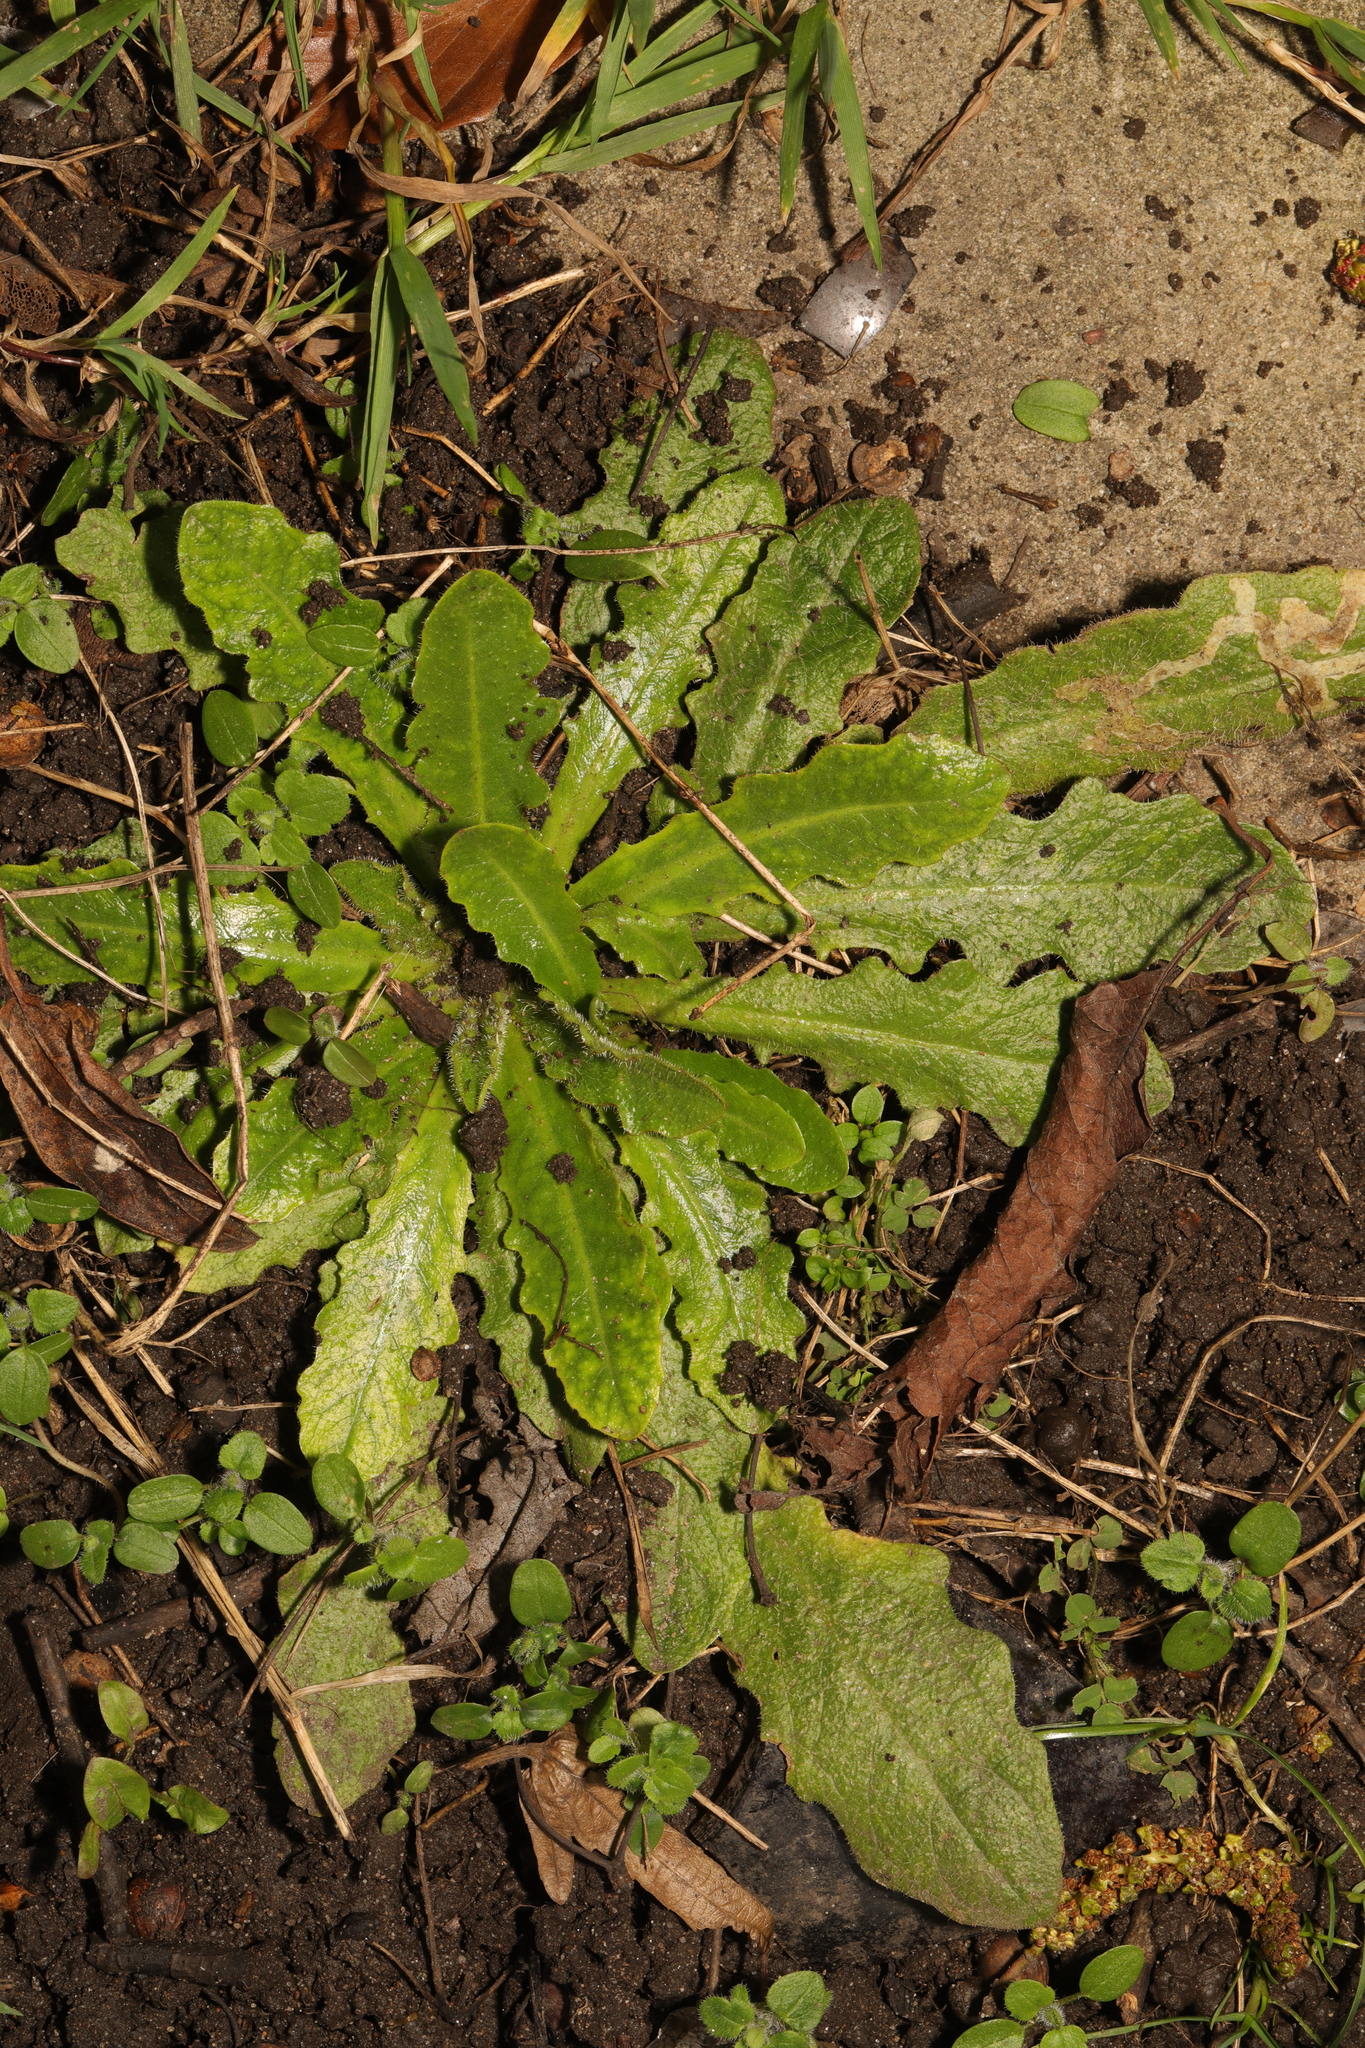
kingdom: Plantae
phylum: Tracheophyta
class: Magnoliopsida
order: Asterales
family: Asteraceae
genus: Hypochaeris
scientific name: Hypochaeris radicata
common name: Flatweed
